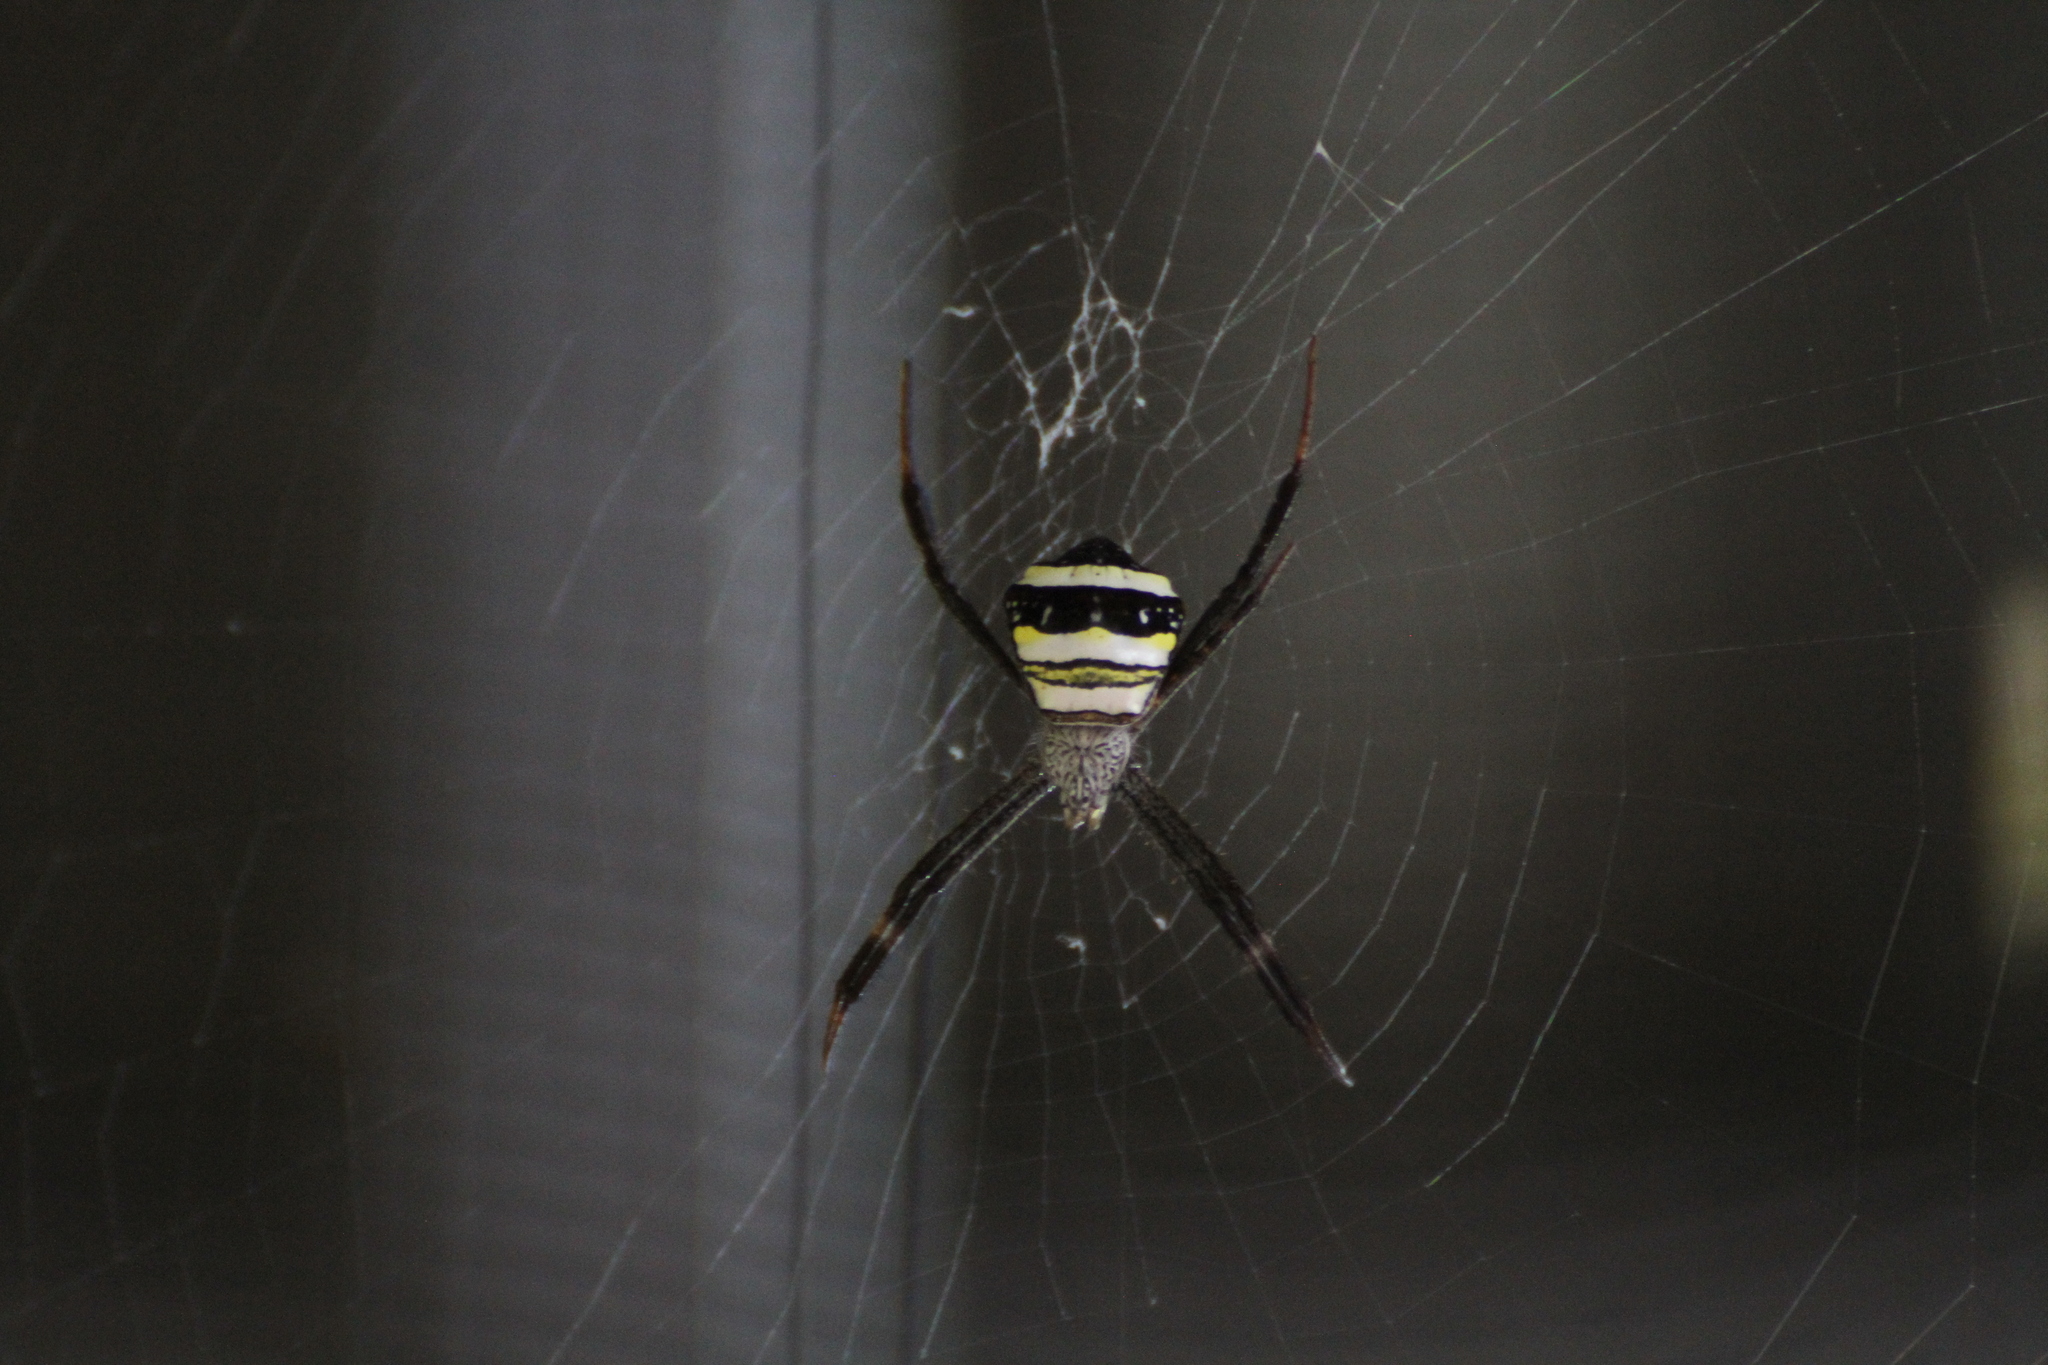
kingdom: Animalia
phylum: Arthropoda
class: Arachnida
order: Araneae
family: Araneidae
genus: Argiope
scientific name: Argiope versicolor
